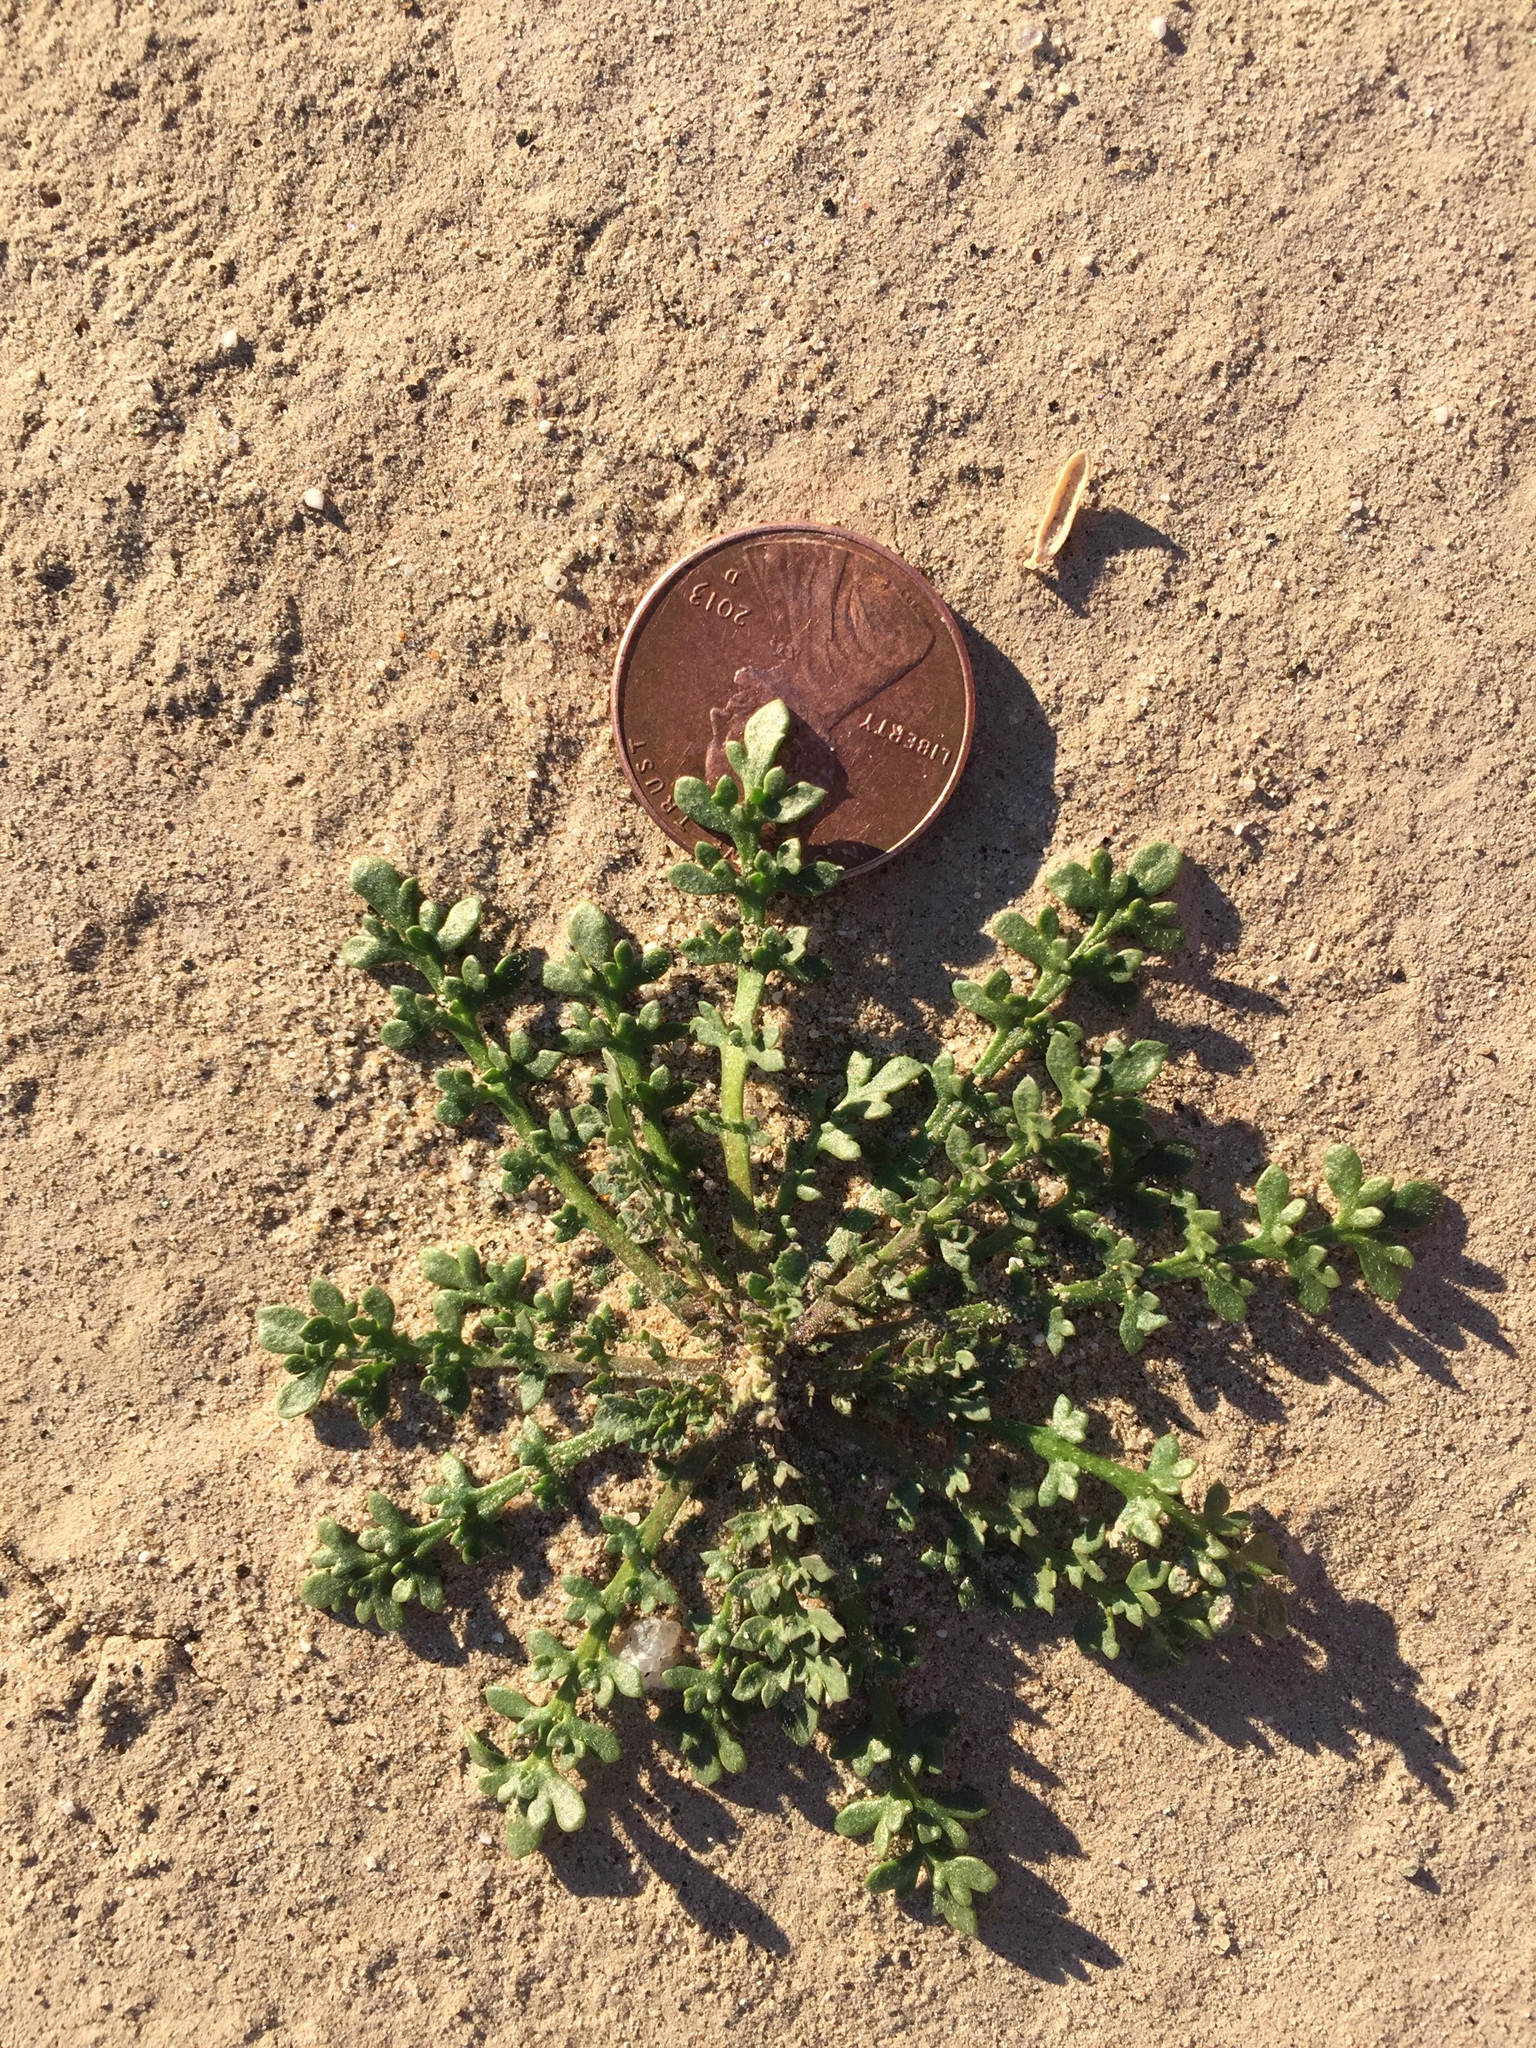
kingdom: Plantae
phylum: Tracheophyta
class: Magnoliopsida
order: Brassicales
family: Brassicaceae
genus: Lepidium
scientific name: Lepidium lasiocarpum
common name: Hairy-pod pepperwort
